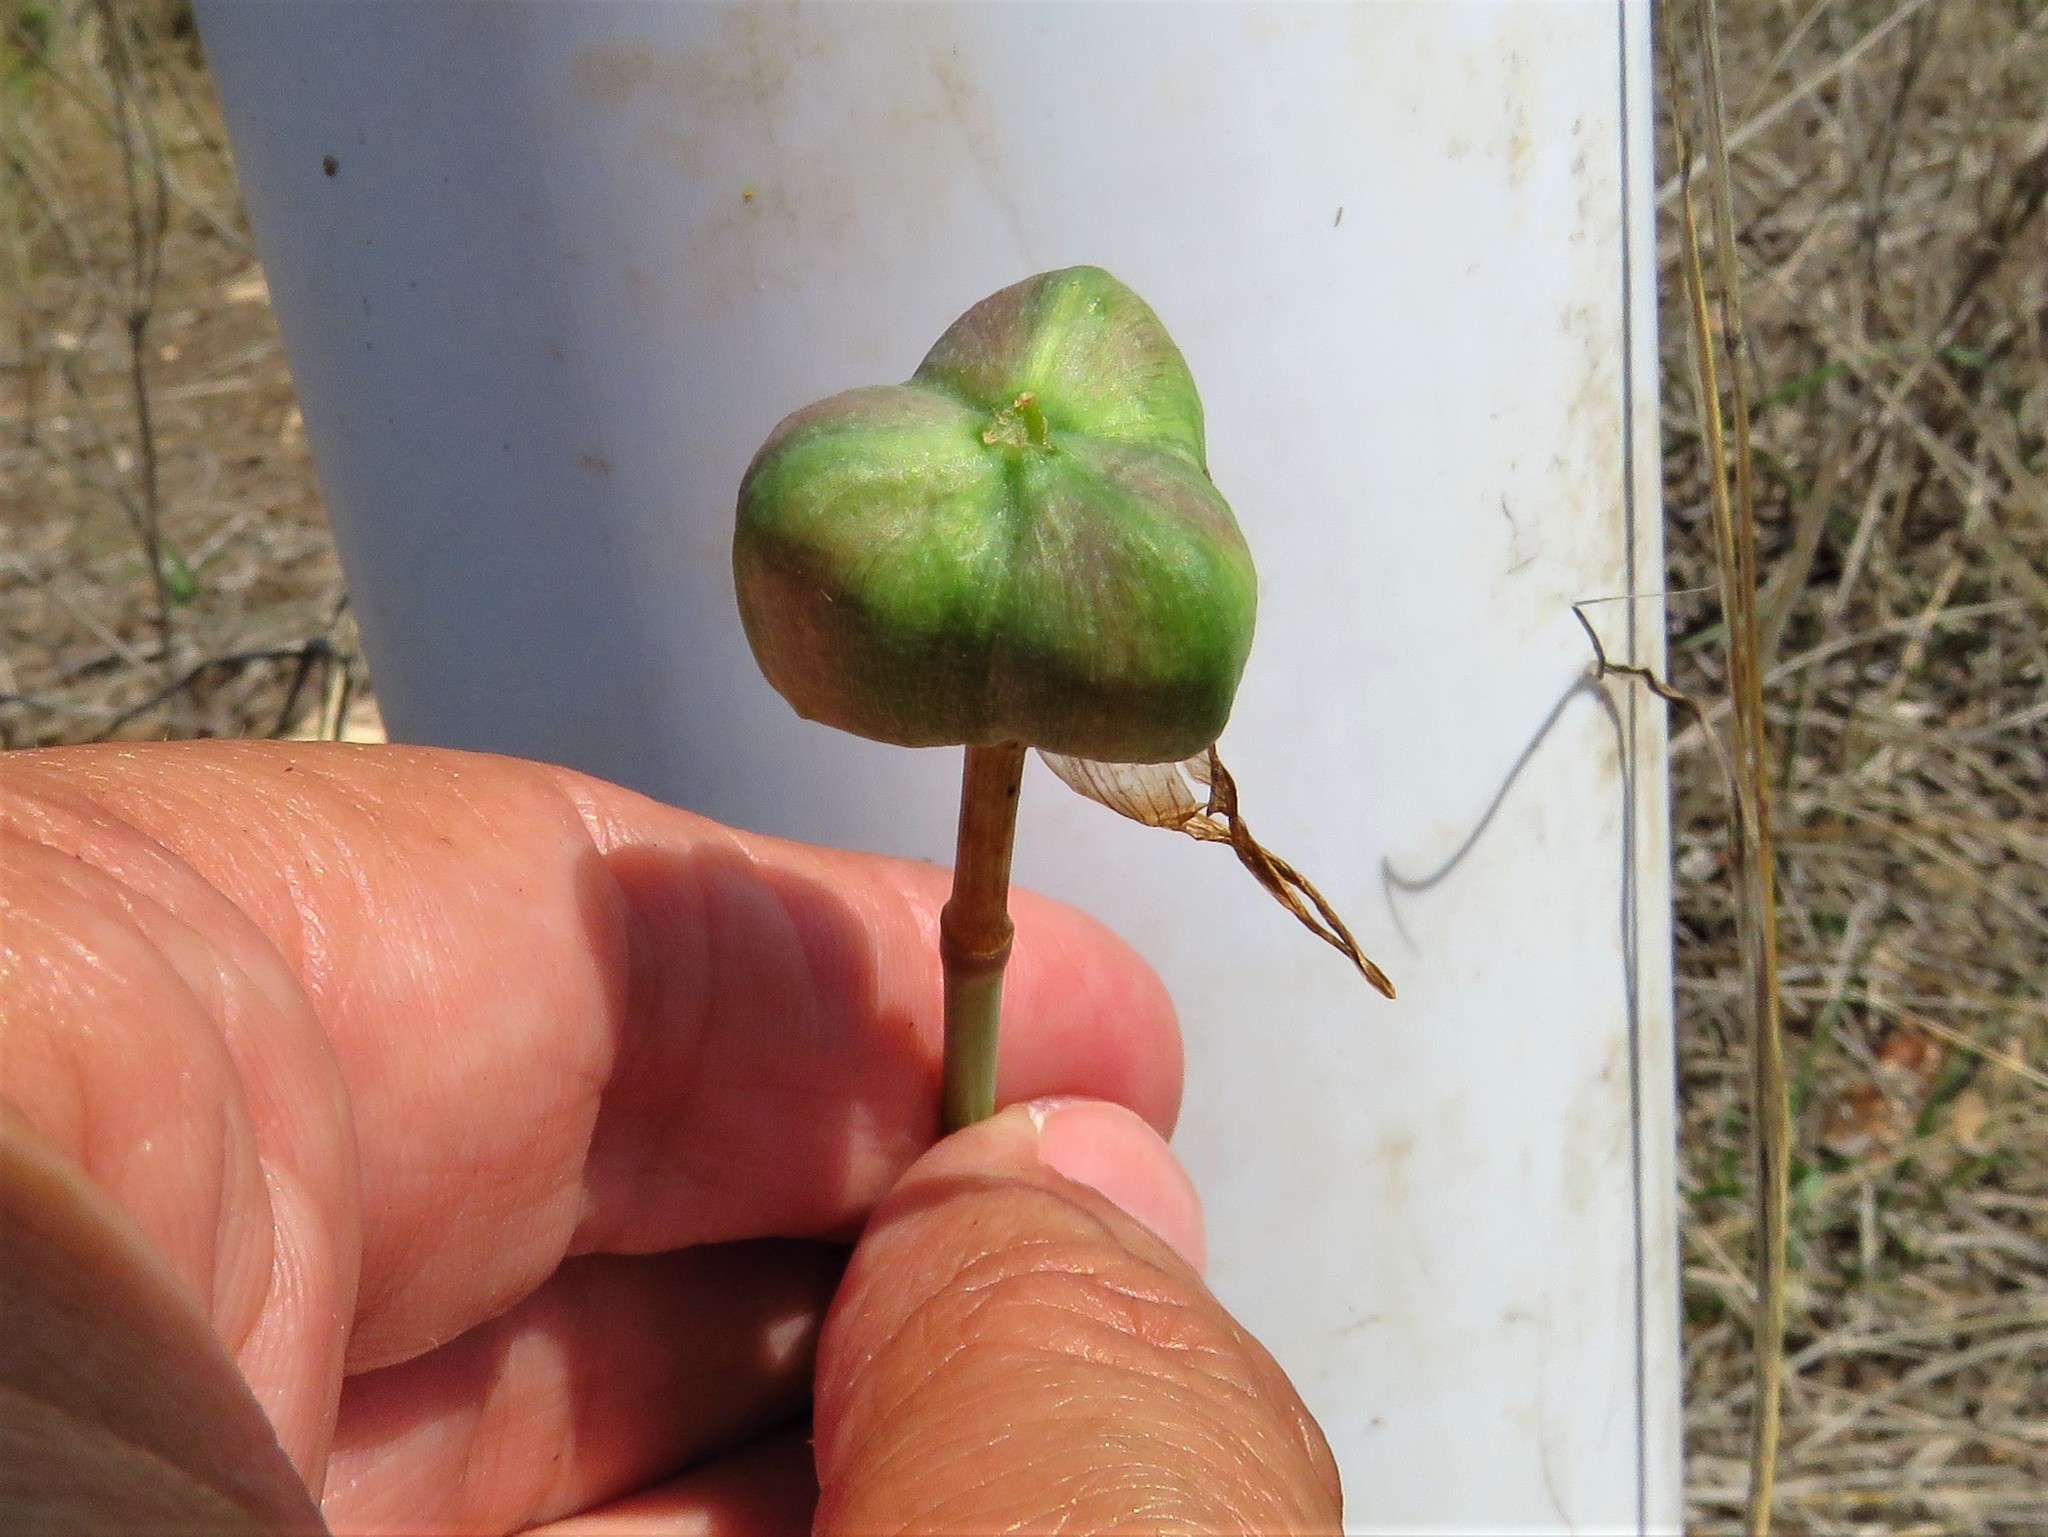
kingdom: Plantae
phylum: Tracheophyta
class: Liliopsida
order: Asparagales
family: Amaryllidaceae
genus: Zephyranthes
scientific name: Zephyranthes chlorosolen
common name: Evening rain-lily
